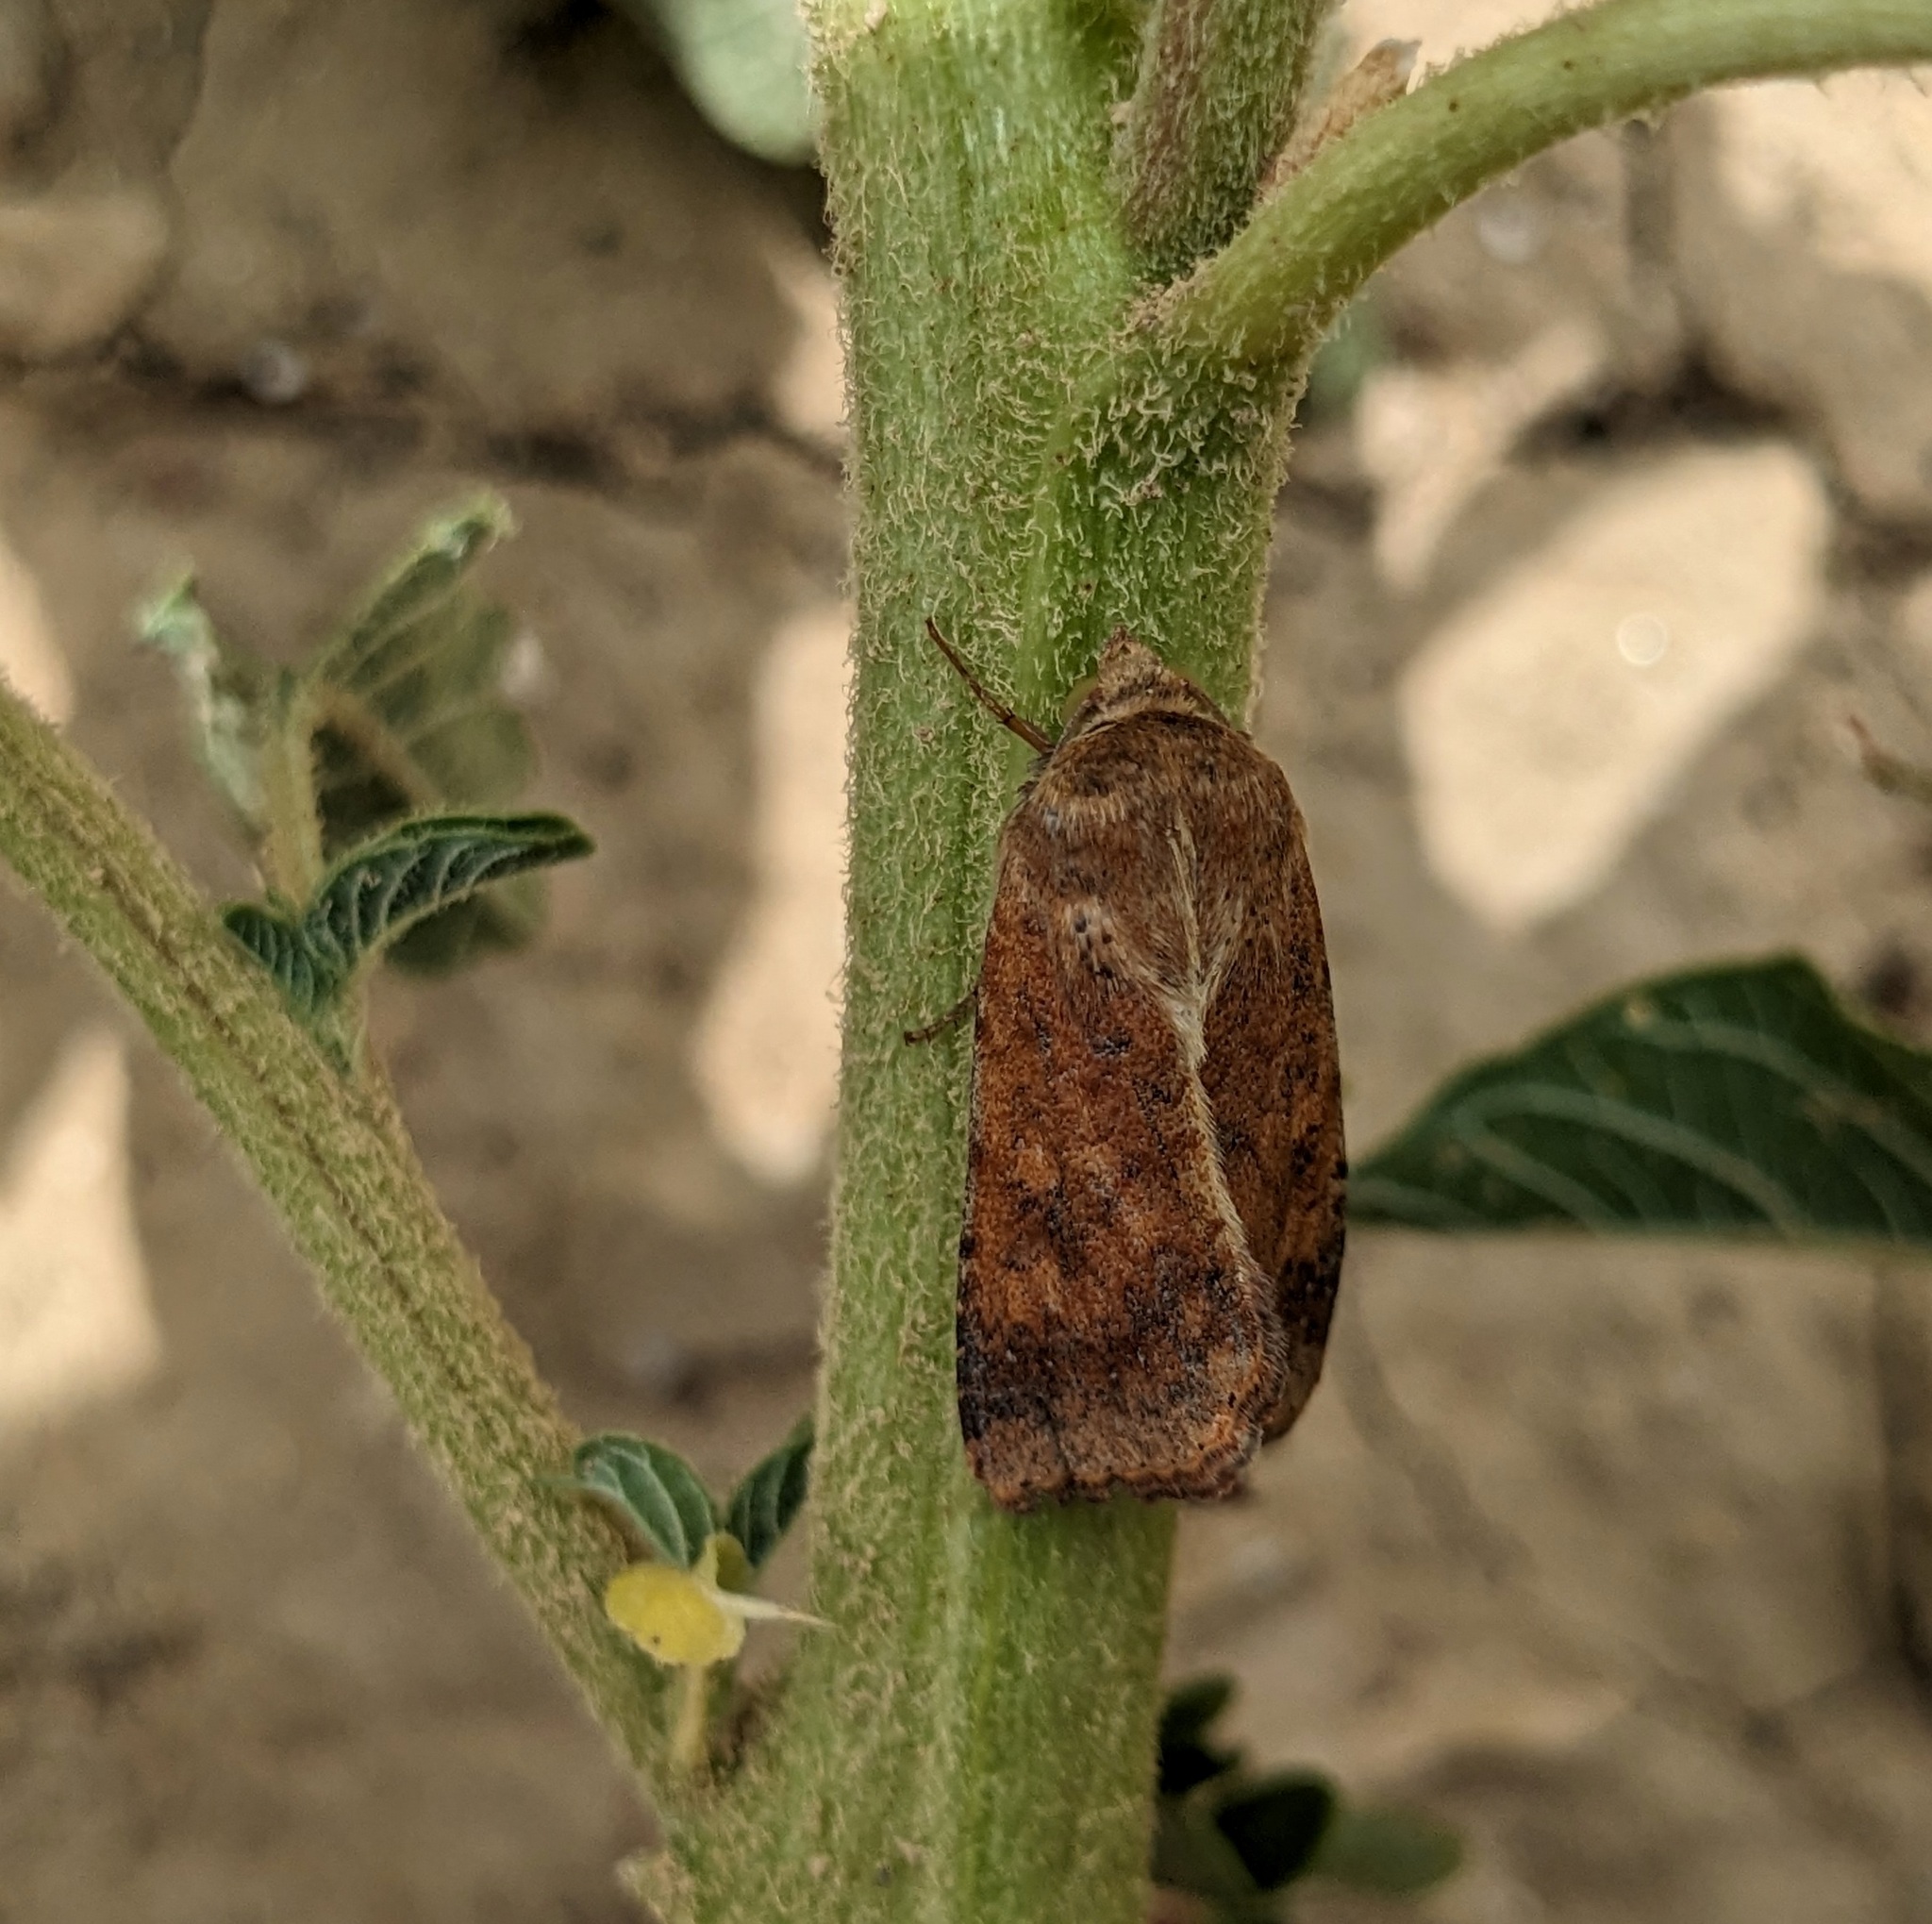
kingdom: Animalia
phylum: Arthropoda
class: Insecta
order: Lepidoptera
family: Noctuidae
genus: Helicoverpa
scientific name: Helicoverpa armigera
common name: Cotton bollworm
